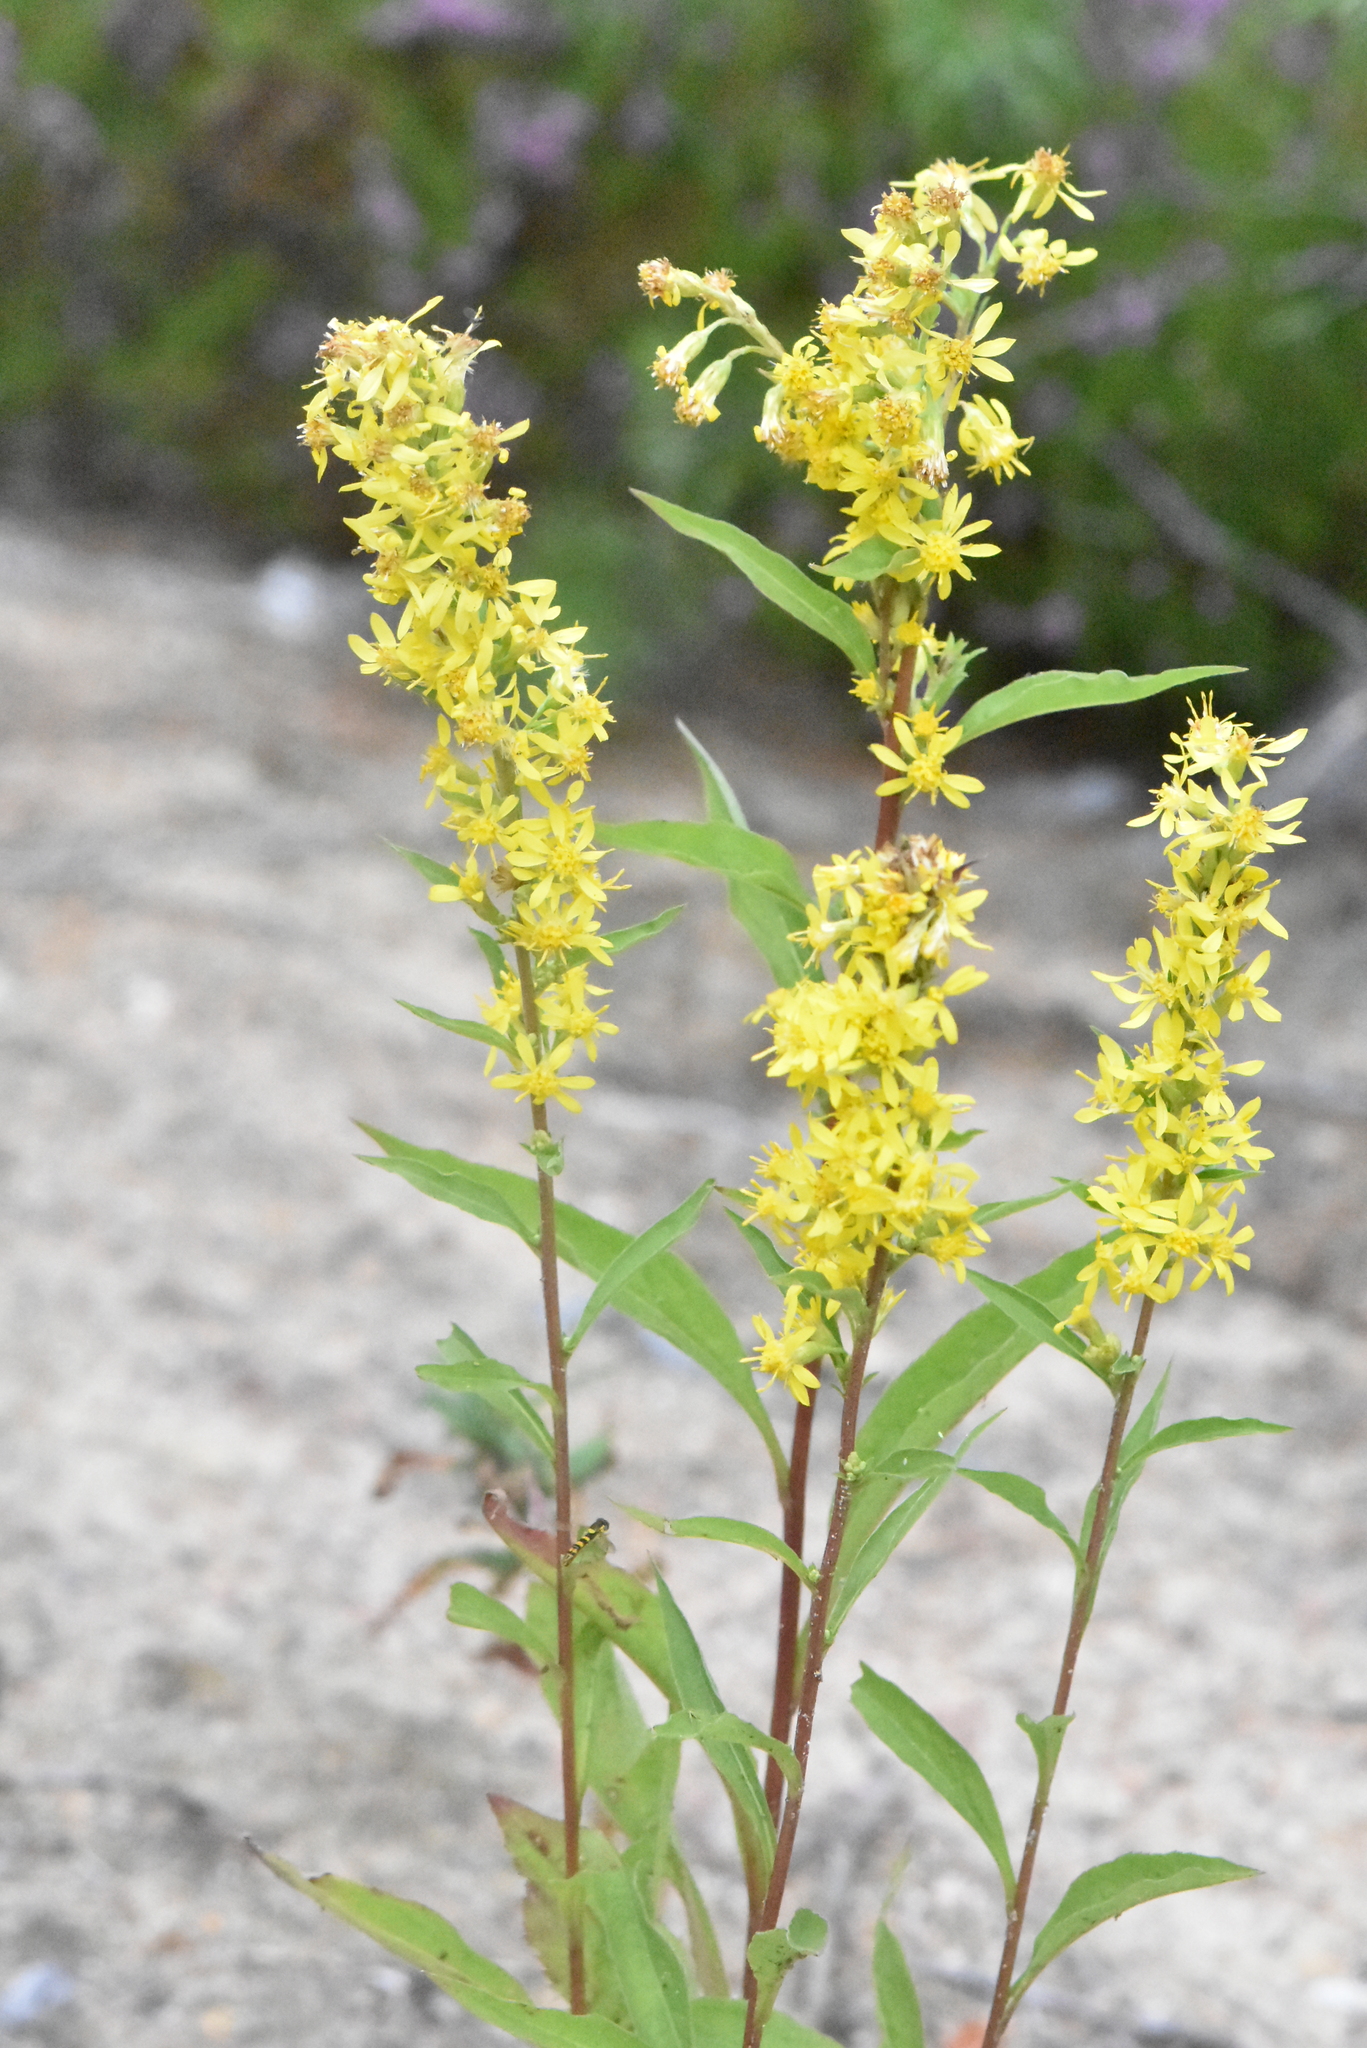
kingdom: Plantae
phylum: Tracheophyta
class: Magnoliopsida
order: Asterales
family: Asteraceae
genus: Solidago
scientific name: Solidago virgaurea
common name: Goldenrod
